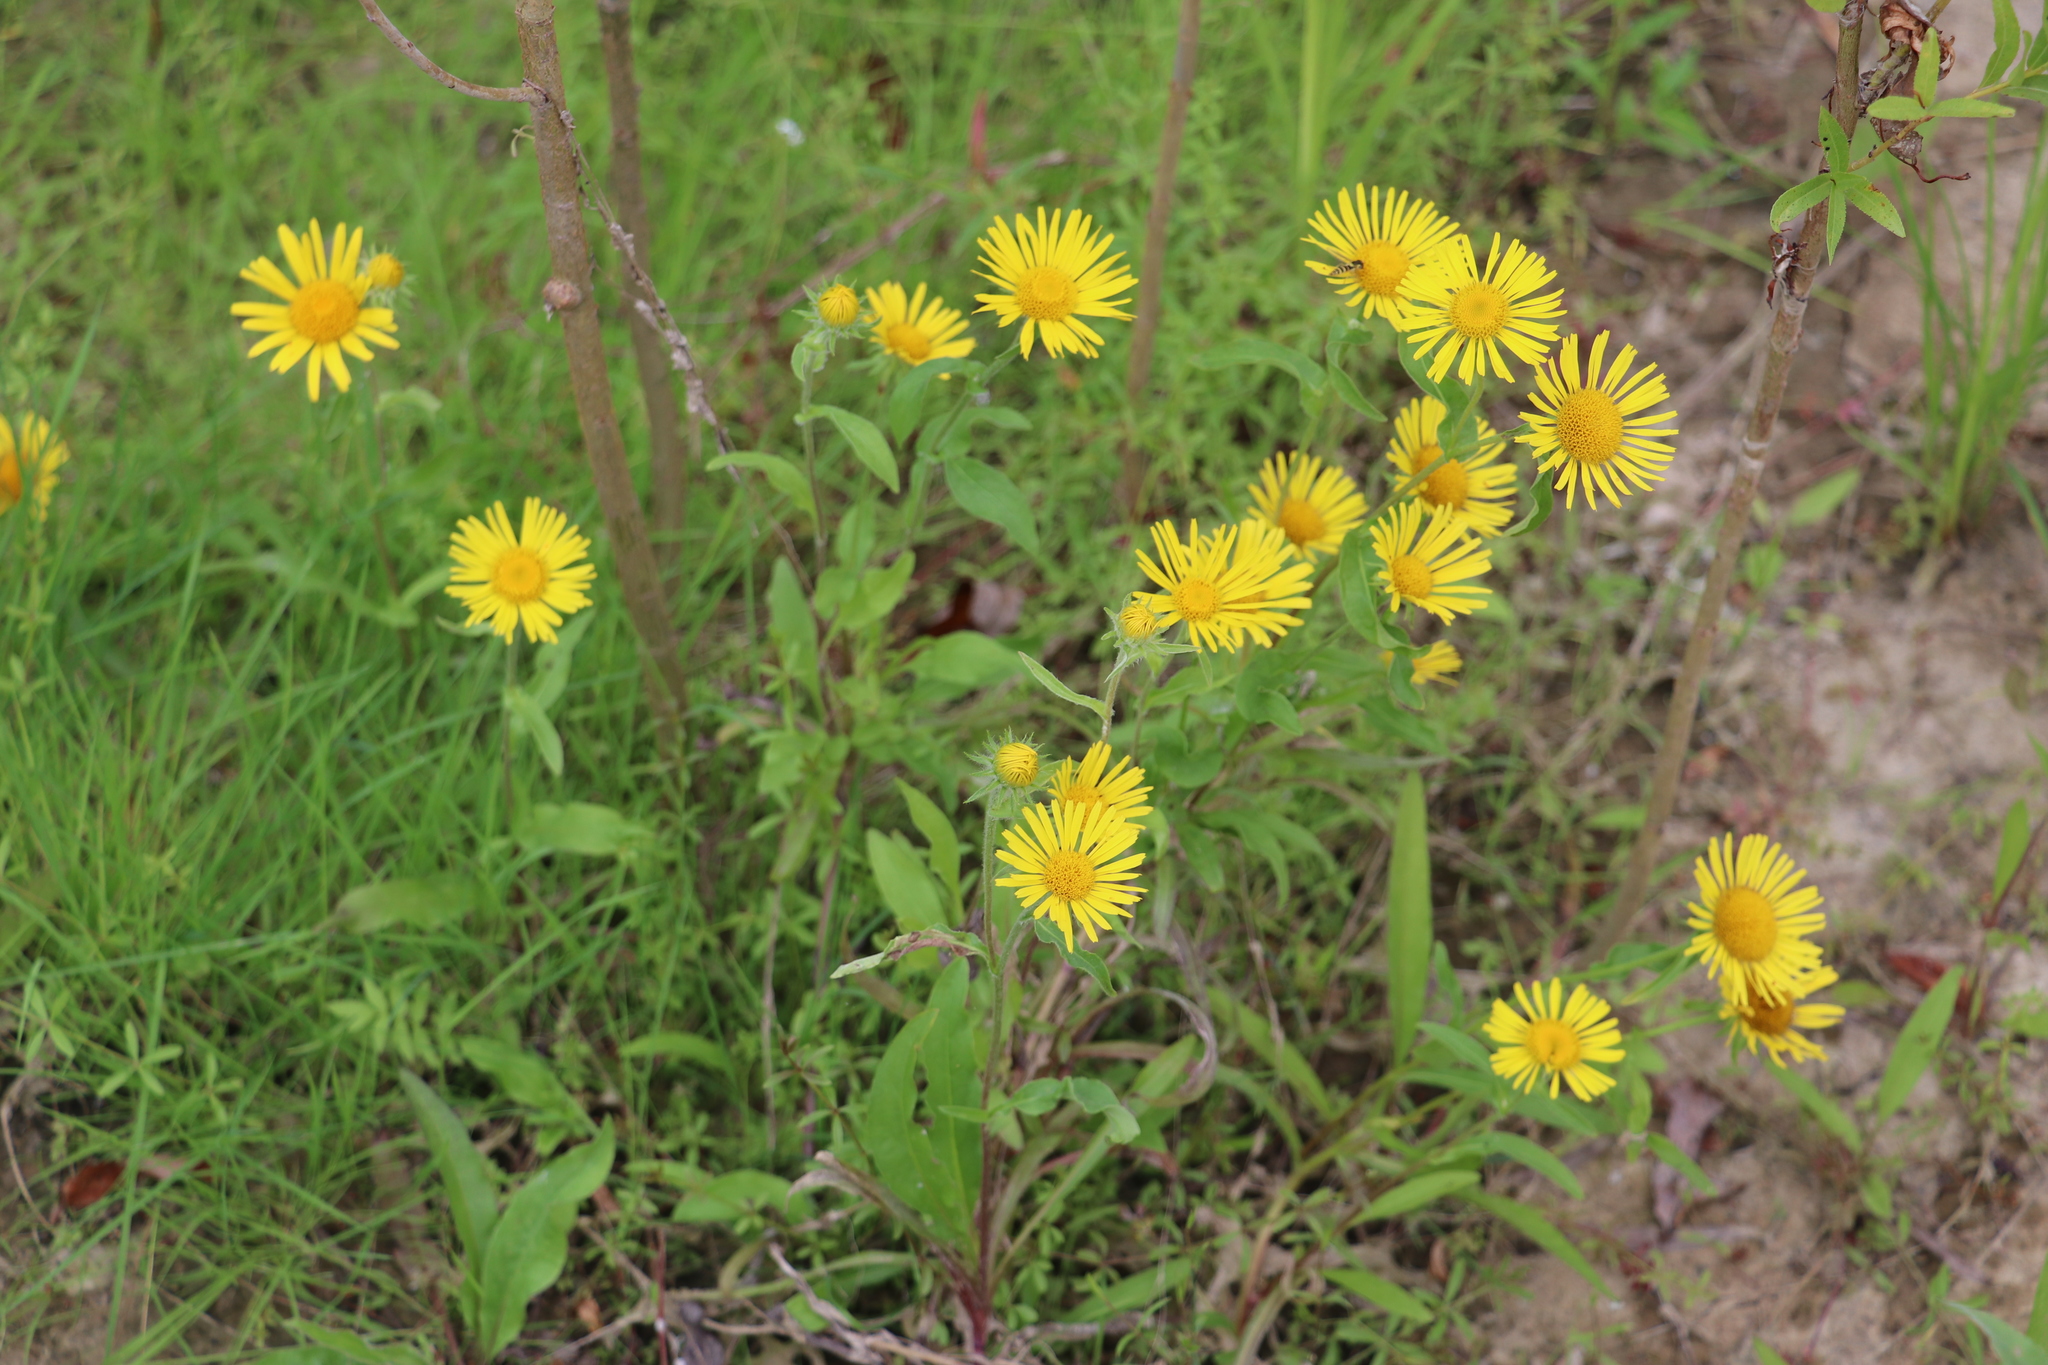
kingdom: Plantae
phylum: Tracheophyta
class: Magnoliopsida
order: Asterales
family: Asteraceae
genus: Pentanema
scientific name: Pentanema britannicum
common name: British elecampane
